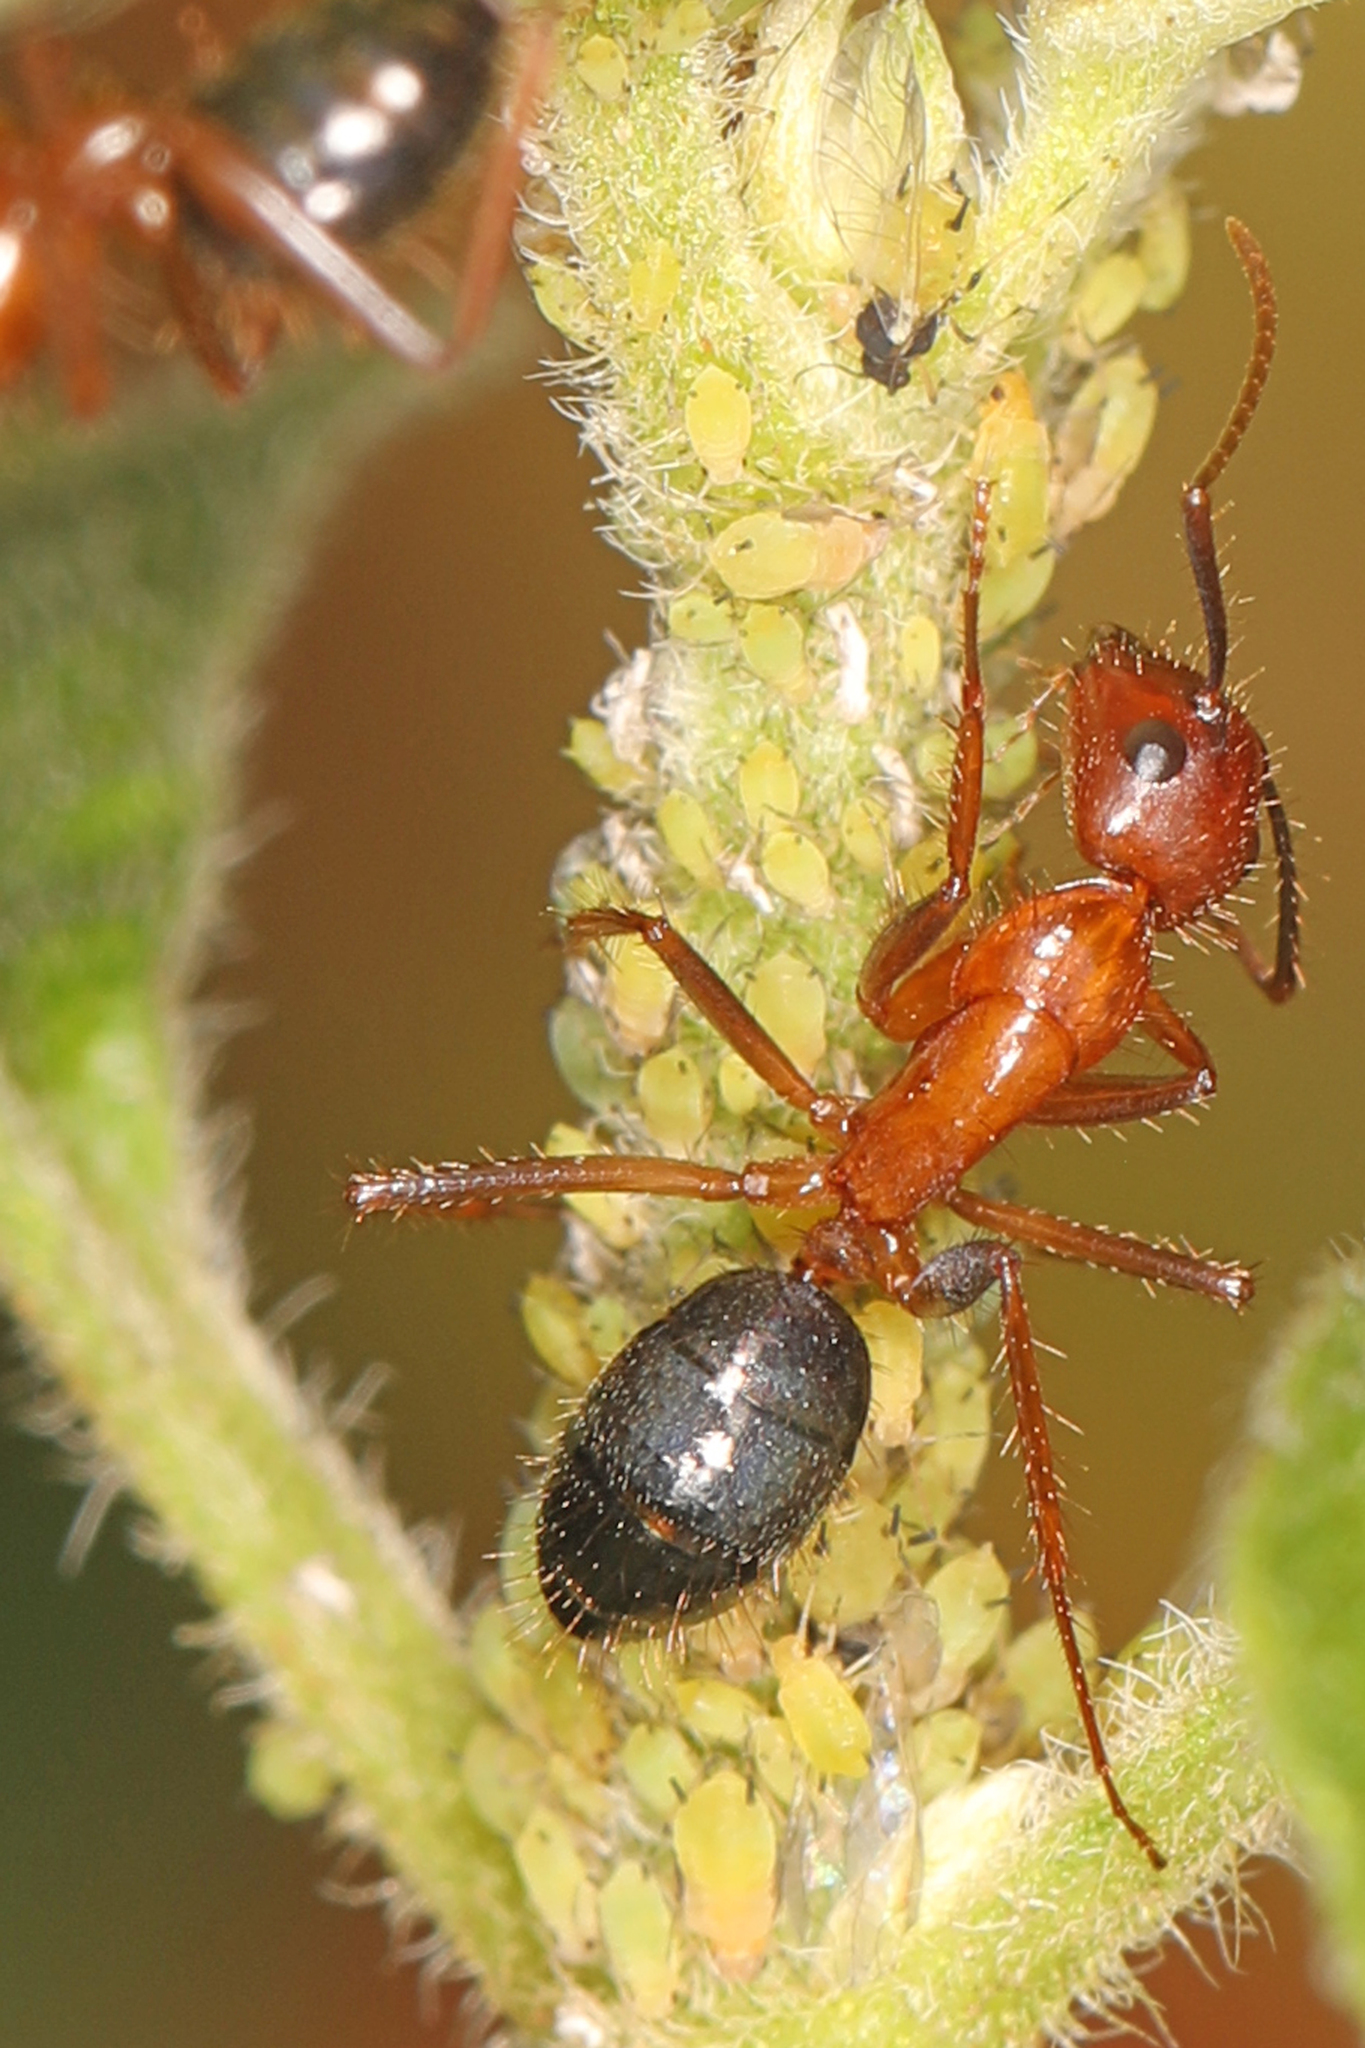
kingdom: Animalia
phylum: Arthropoda
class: Insecta
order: Hymenoptera
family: Formicidae
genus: Camponotus
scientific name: Camponotus floridanus
